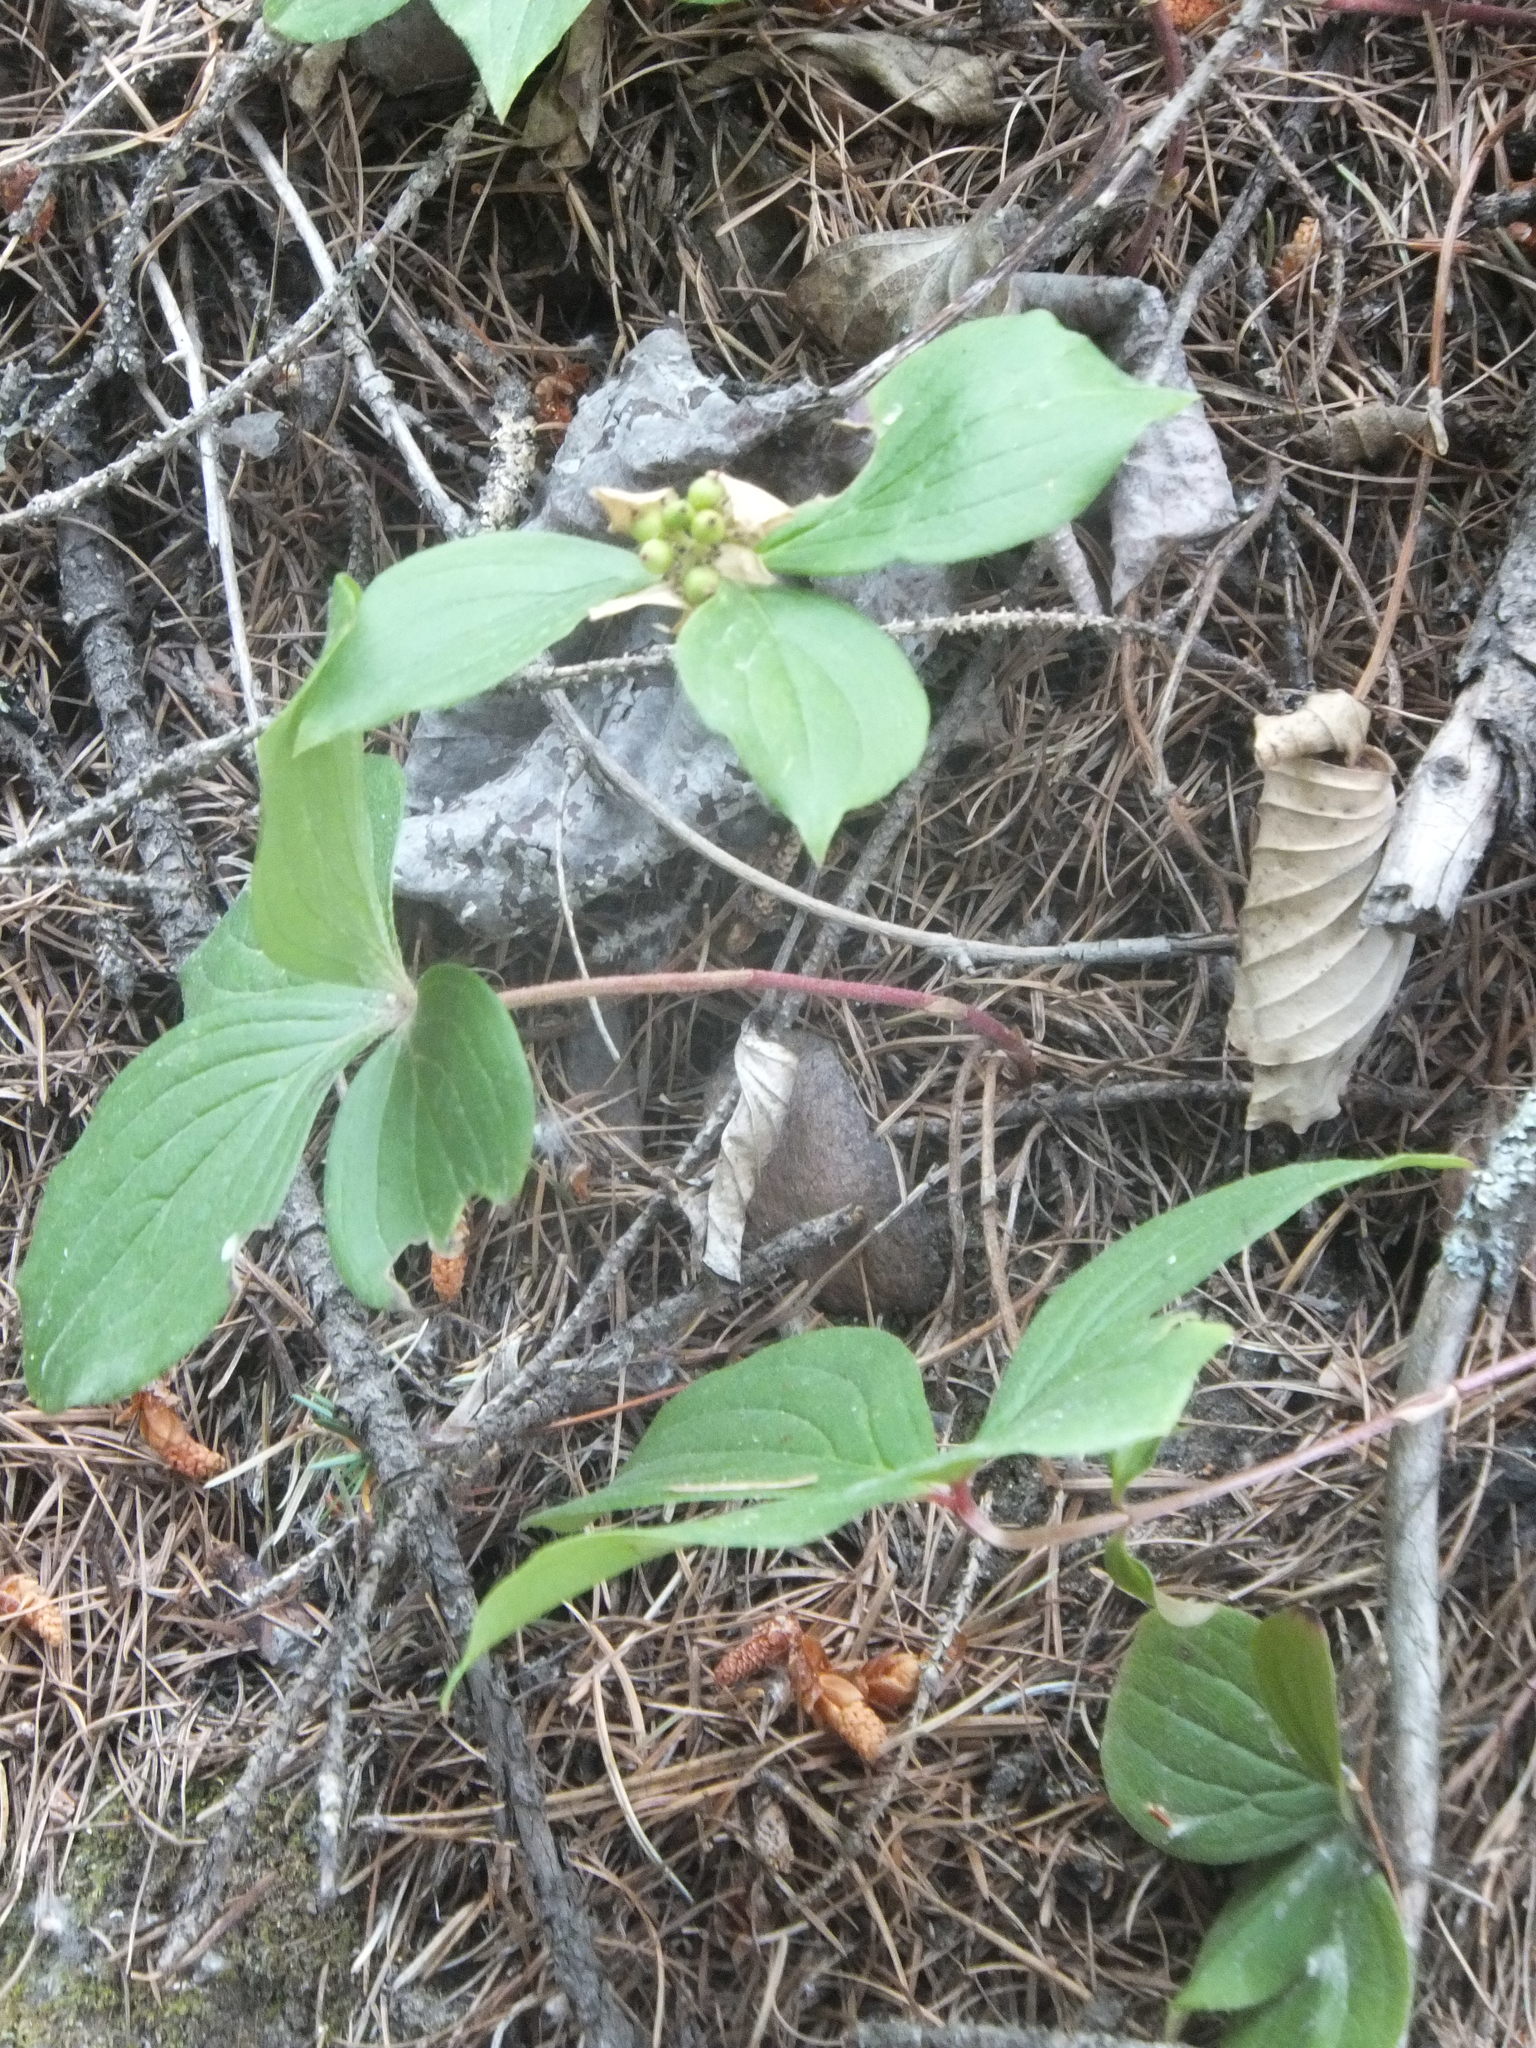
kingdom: Plantae
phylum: Tracheophyta
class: Magnoliopsida
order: Cornales
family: Cornaceae
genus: Cornus
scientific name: Cornus unalaschkensis
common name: Alaska bunchberry
